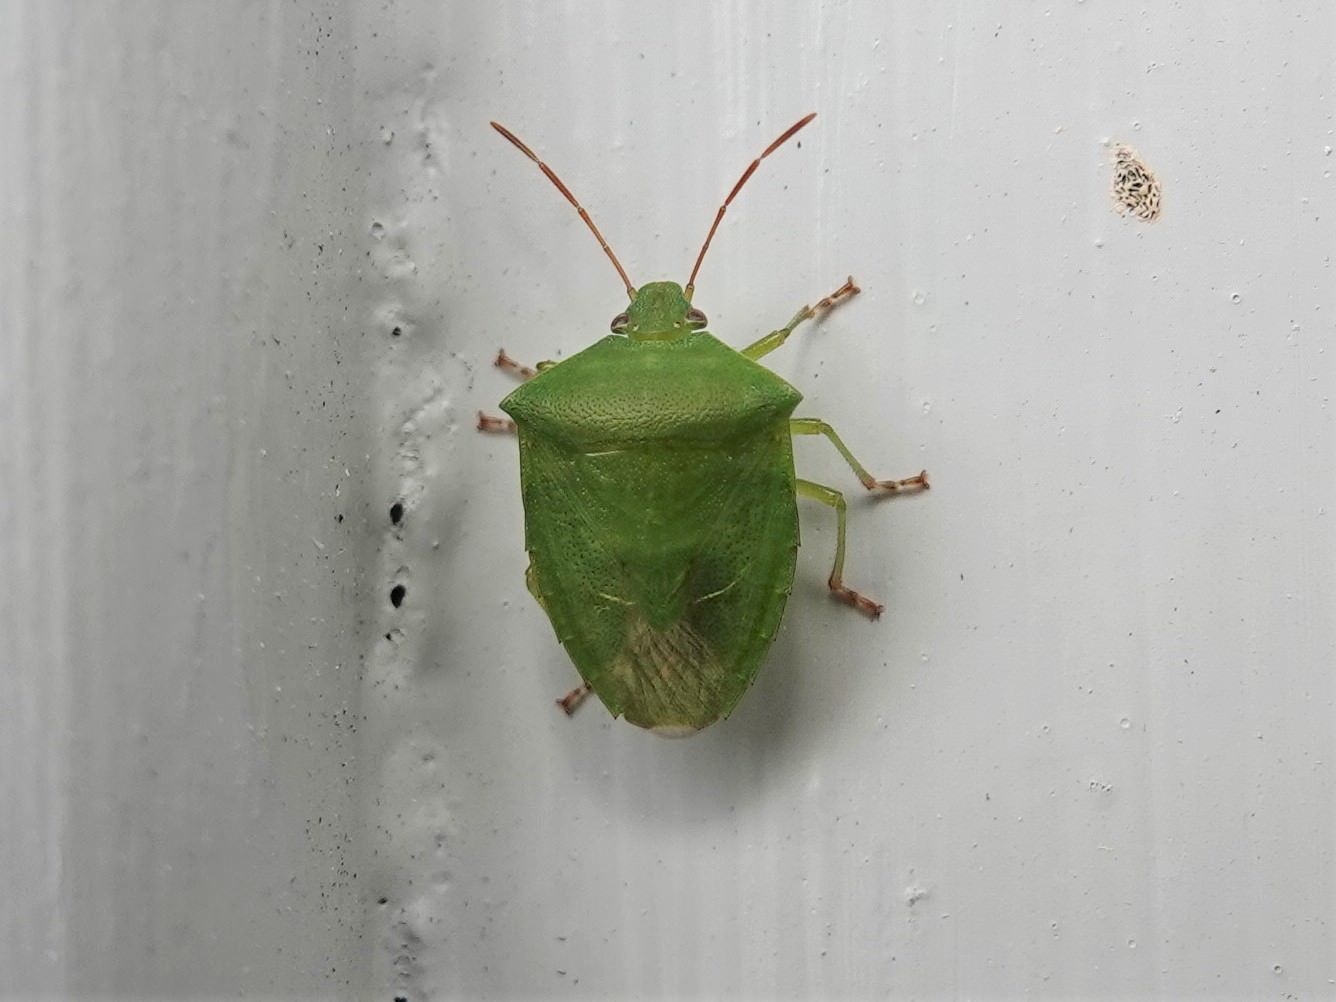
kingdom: Animalia
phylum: Arthropoda
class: Insecta
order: Hemiptera
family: Pentatomidae
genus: Cuspicona
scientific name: Cuspicona simplex
